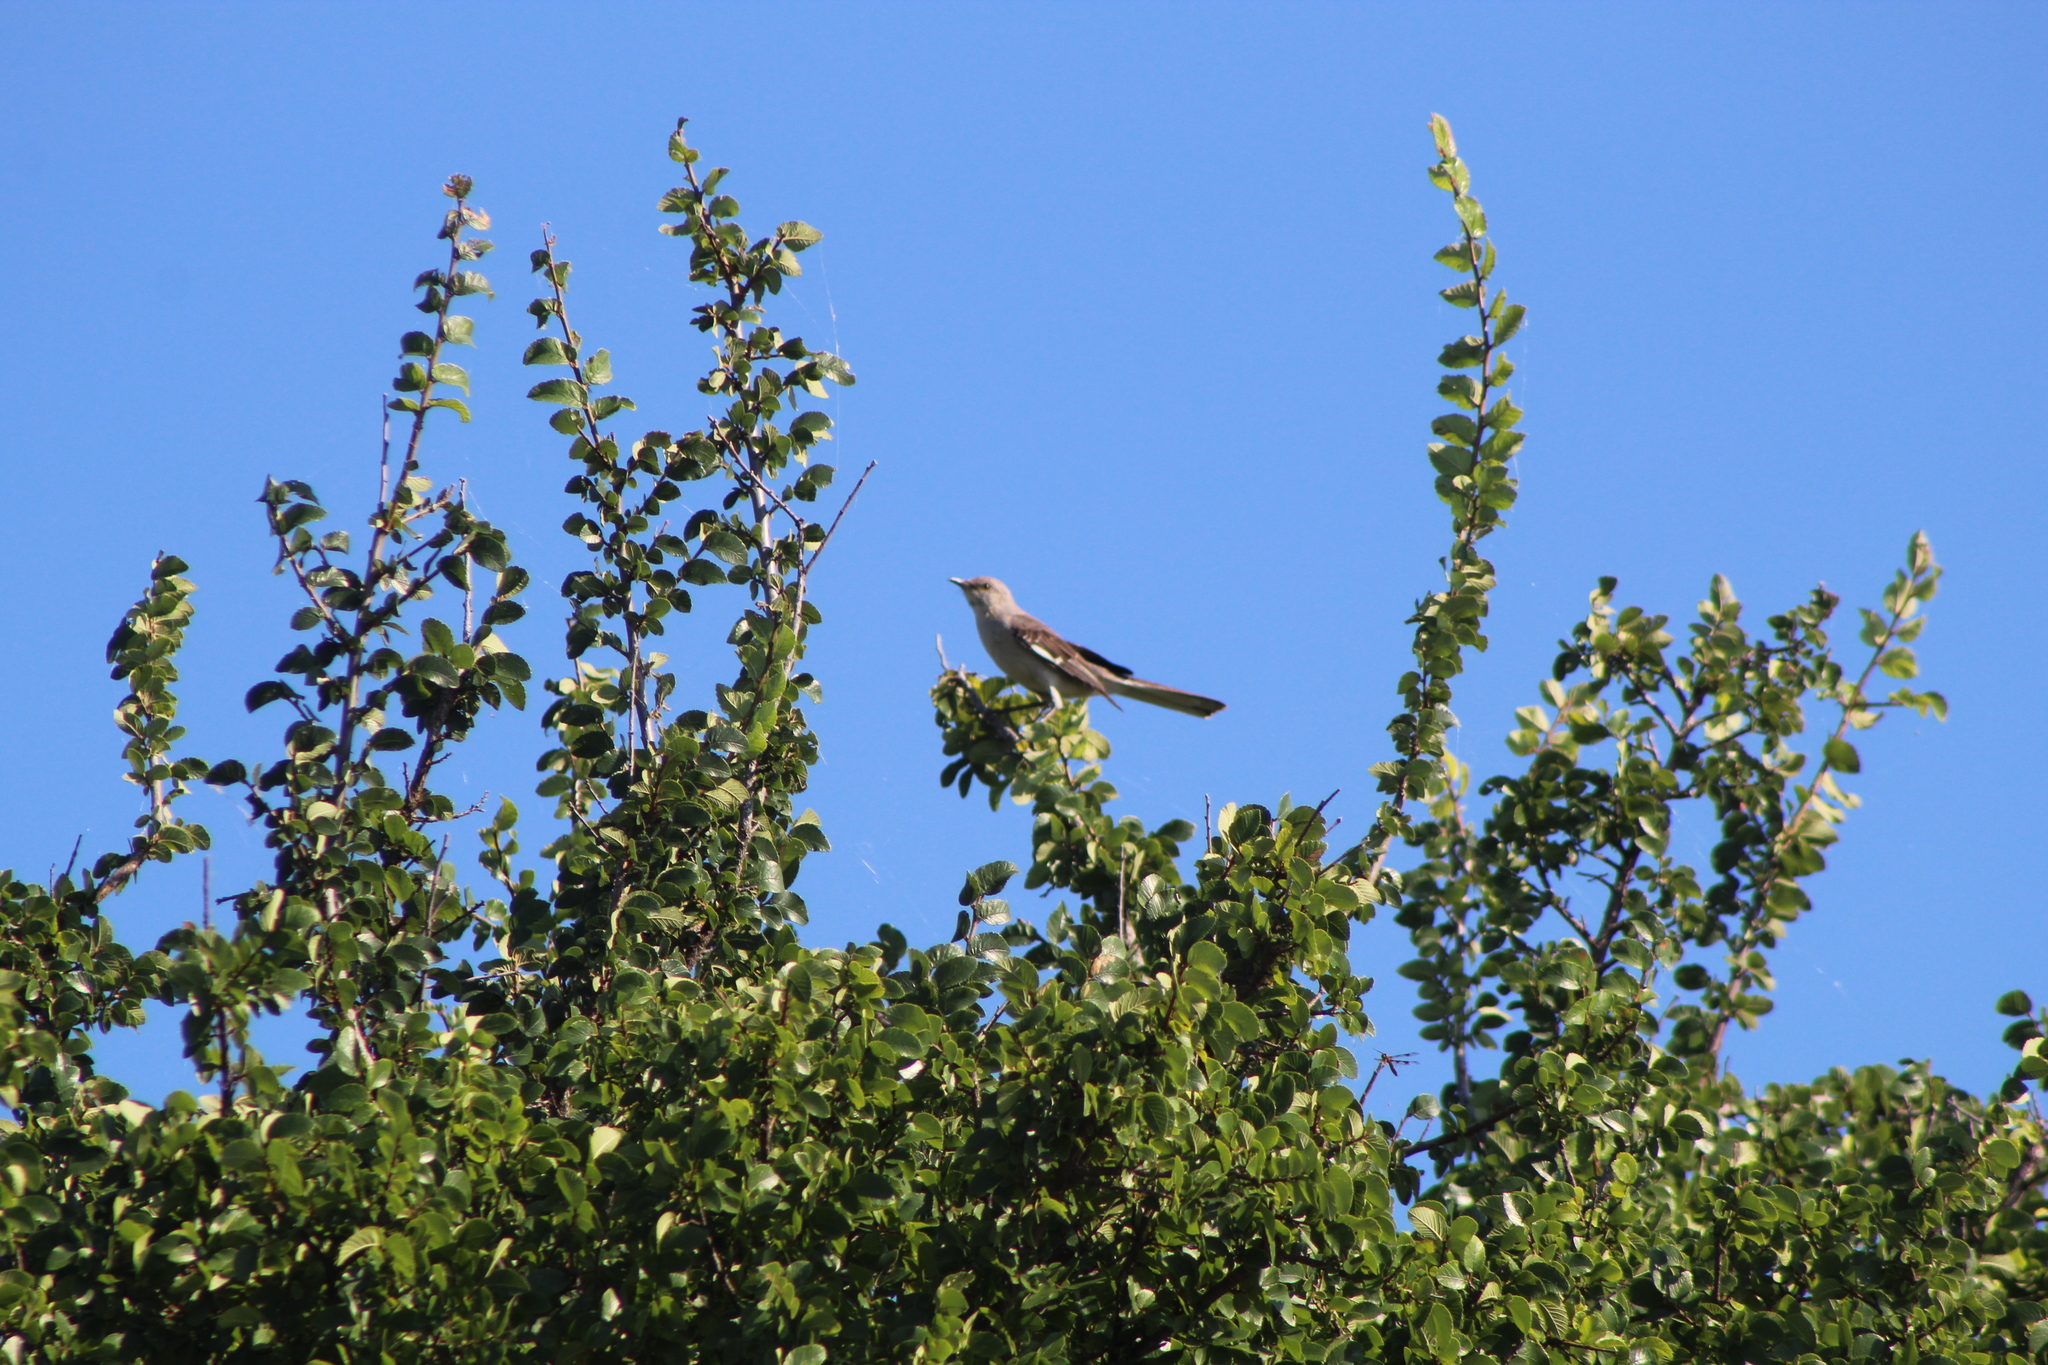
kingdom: Animalia
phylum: Chordata
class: Aves
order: Passeriformes
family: Mimidae
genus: Mimus
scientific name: Mimus polyglottos
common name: Northern mockingbird
